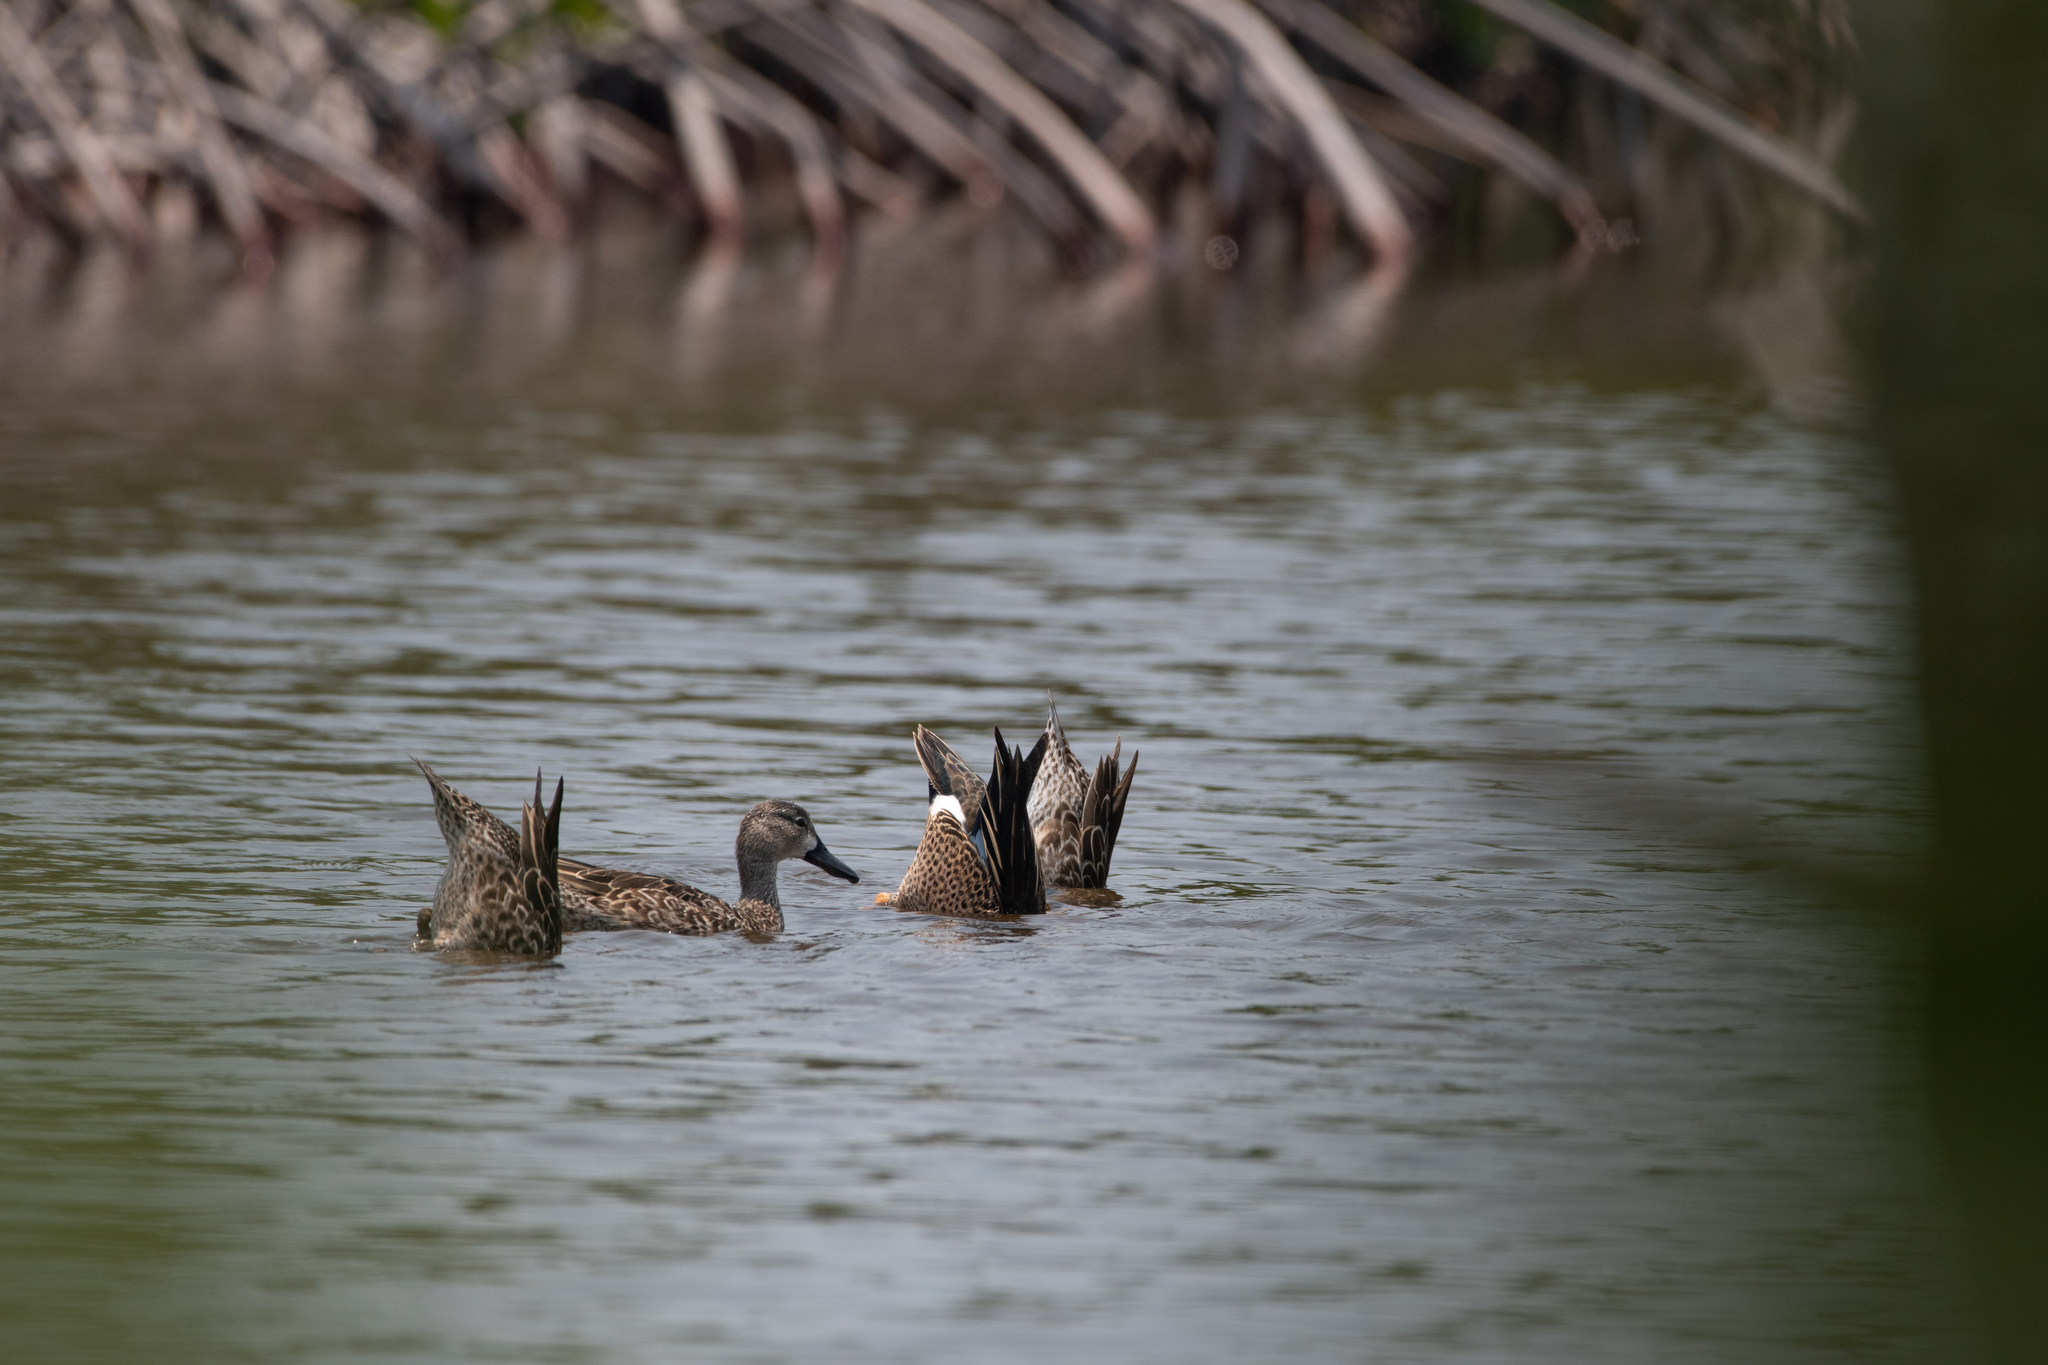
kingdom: Animalia
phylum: Chordata
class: Aves
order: Anseriformes
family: Anatidae
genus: Spatula
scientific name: Spatula discors
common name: Blue-winged teal
